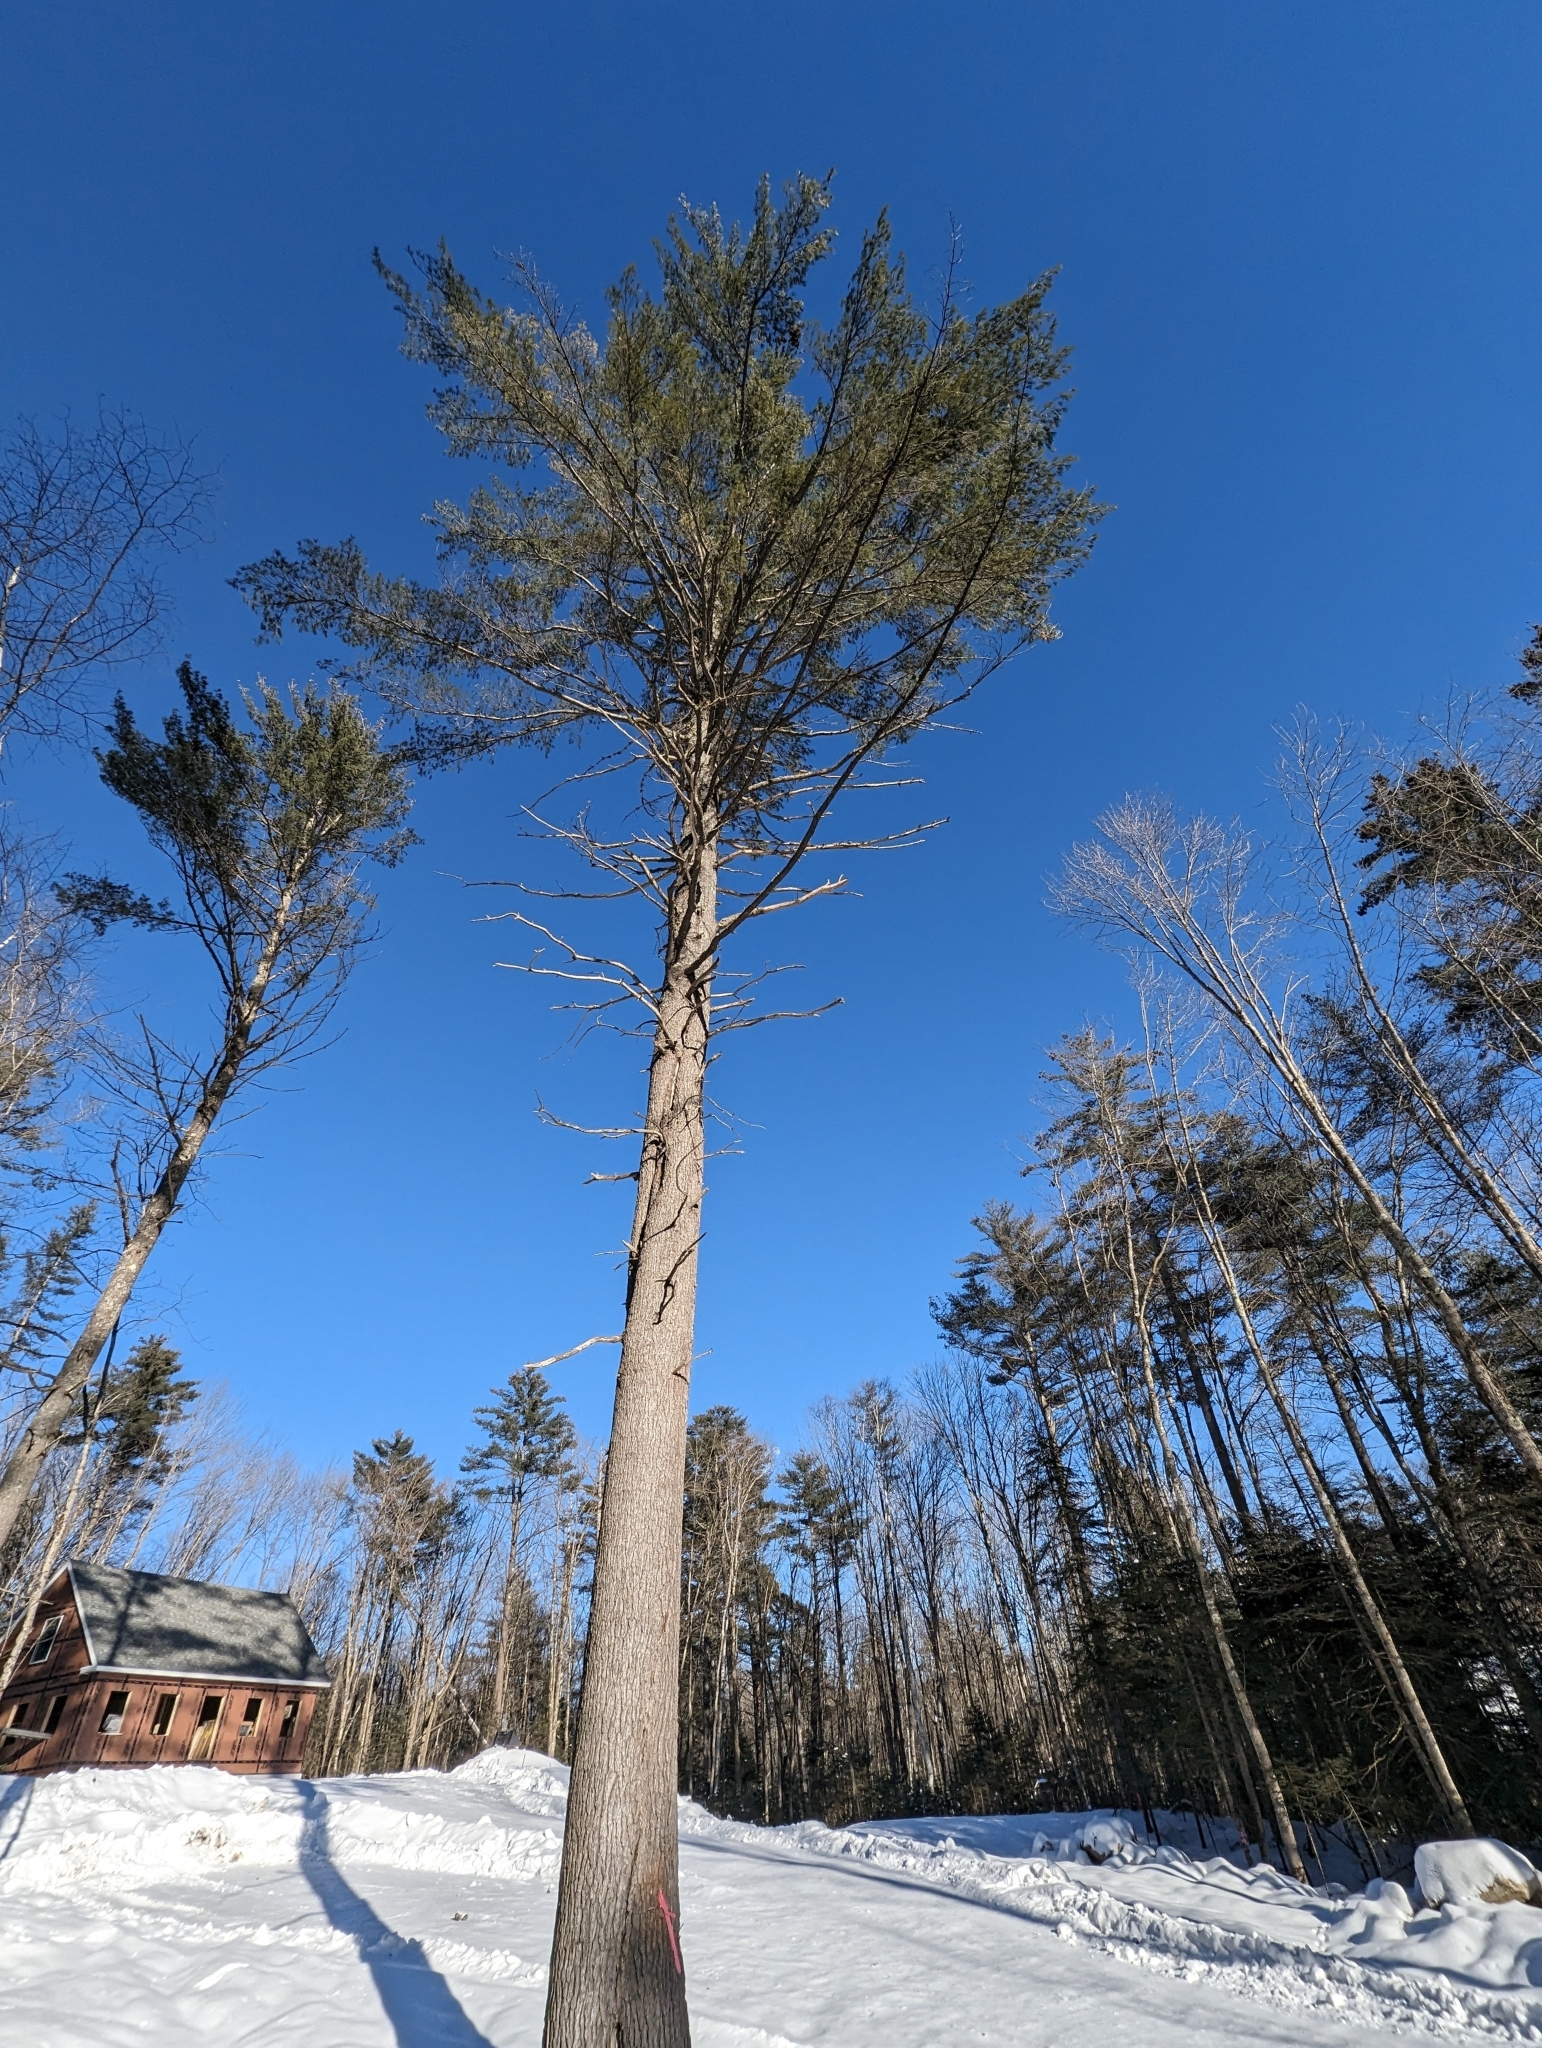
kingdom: Plantae
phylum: Tracheophyta
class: Pinopsida
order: Pinales
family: Pinaceae
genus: Pinus
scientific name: Pinus strobus
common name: Weymouth pine
